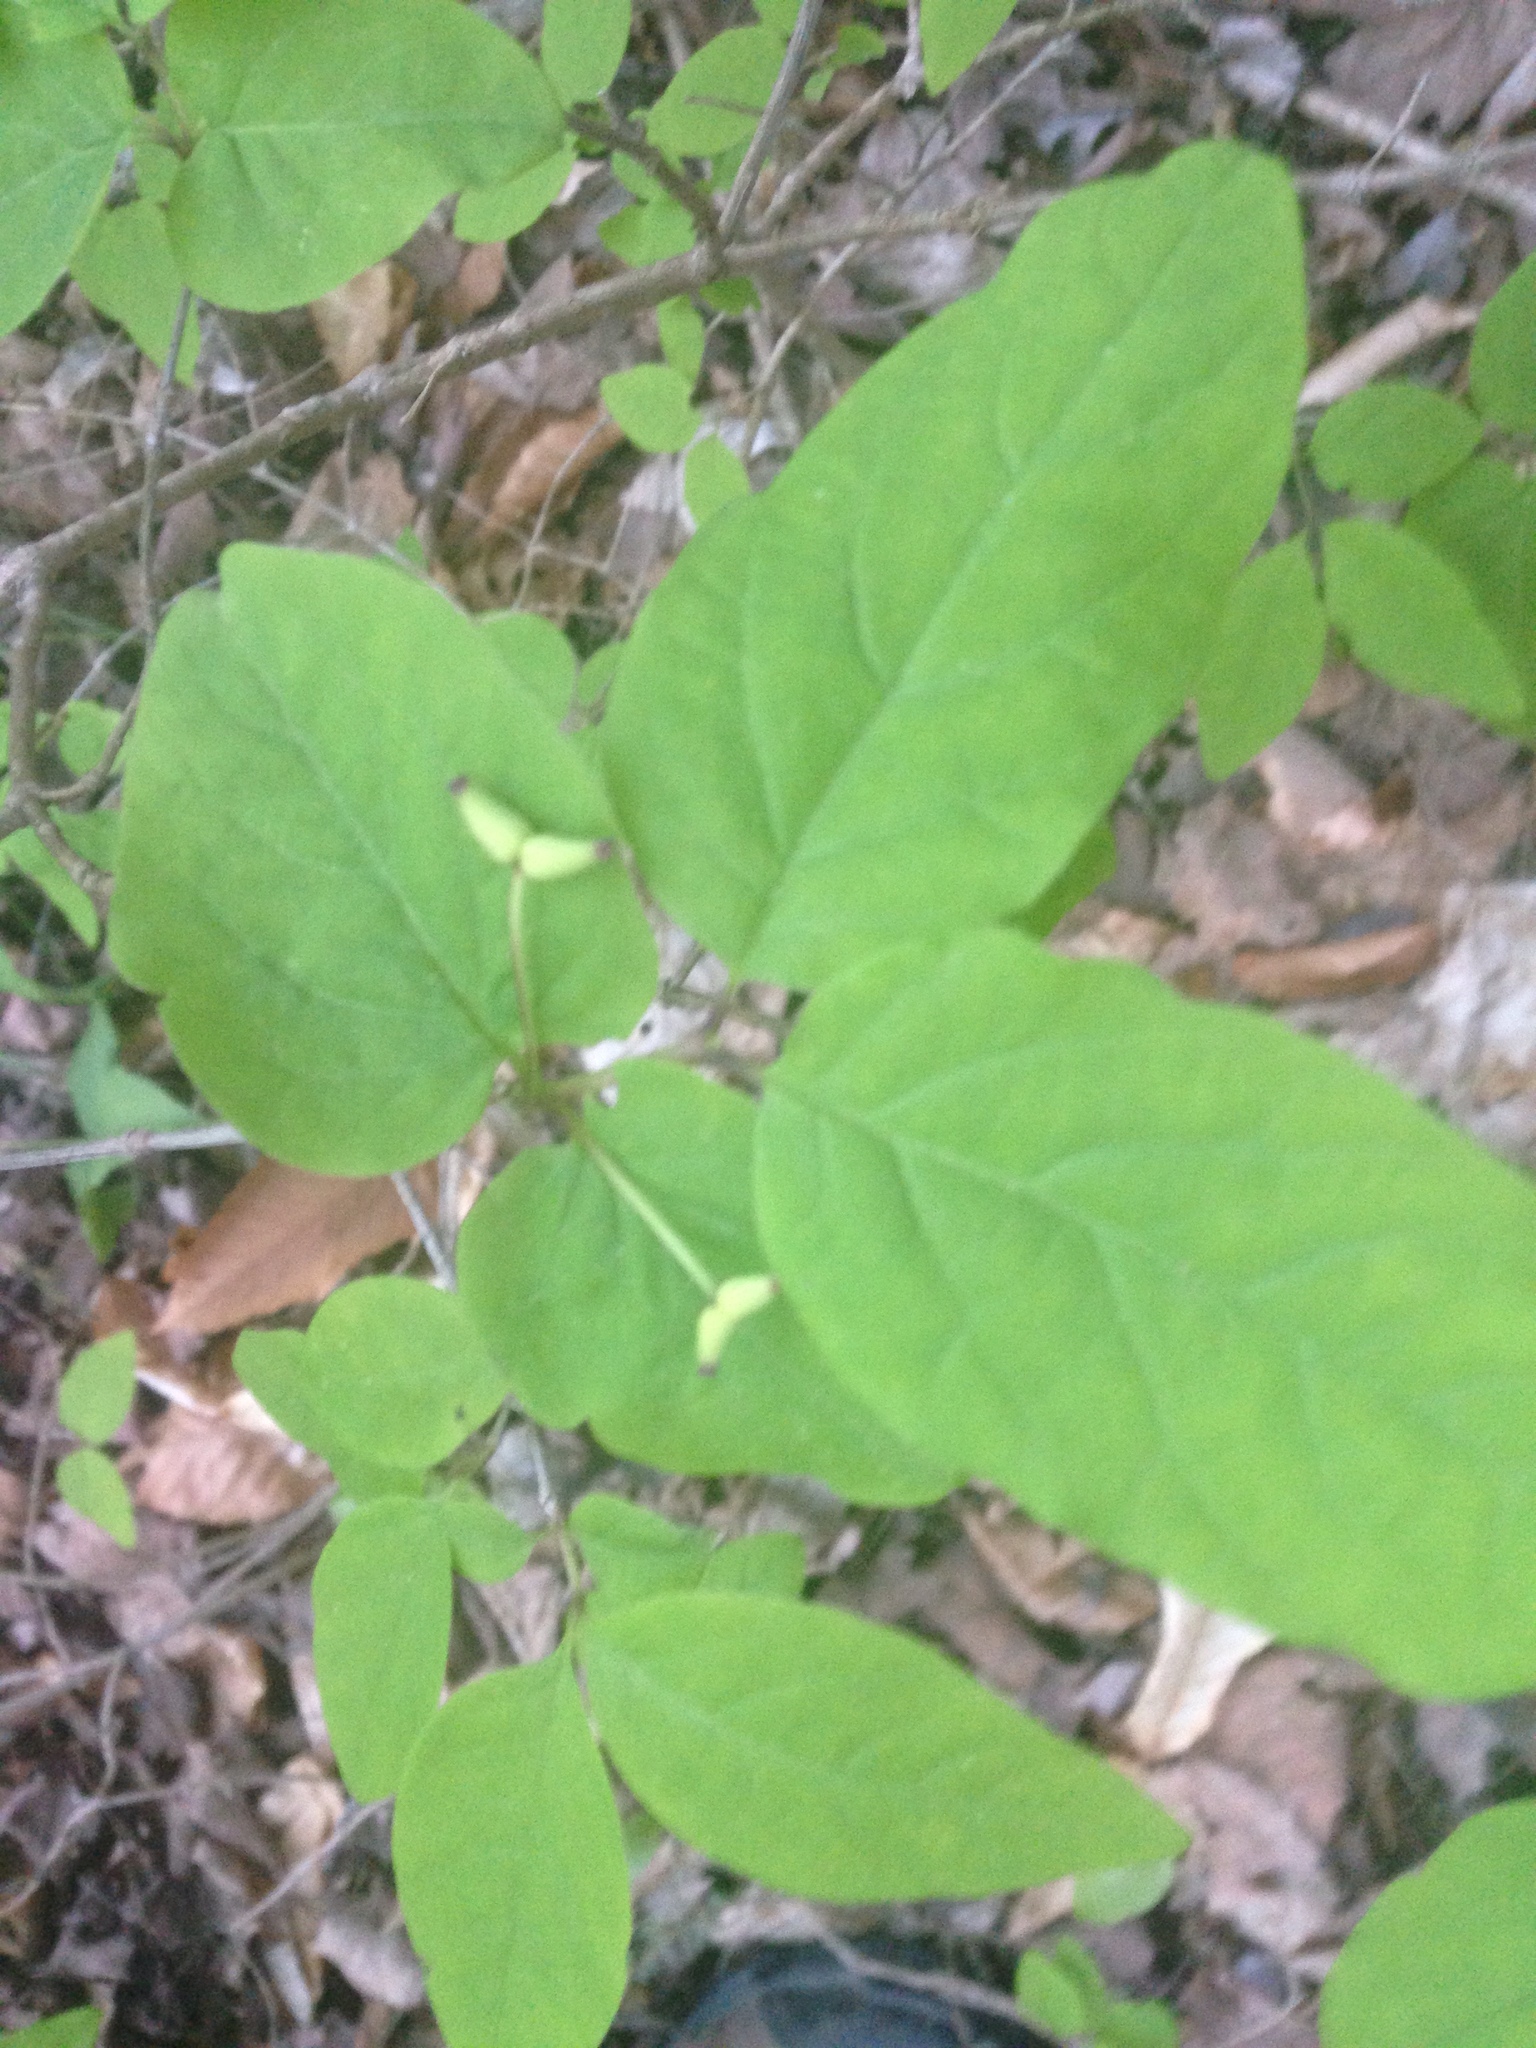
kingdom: Plantae
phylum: Tracheophyta
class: Magnoliopsida
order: Dipsacales
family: Caprifoliaceae
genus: Lonicera
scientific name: Lonicera canadensis
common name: American fly-honeysuckle
